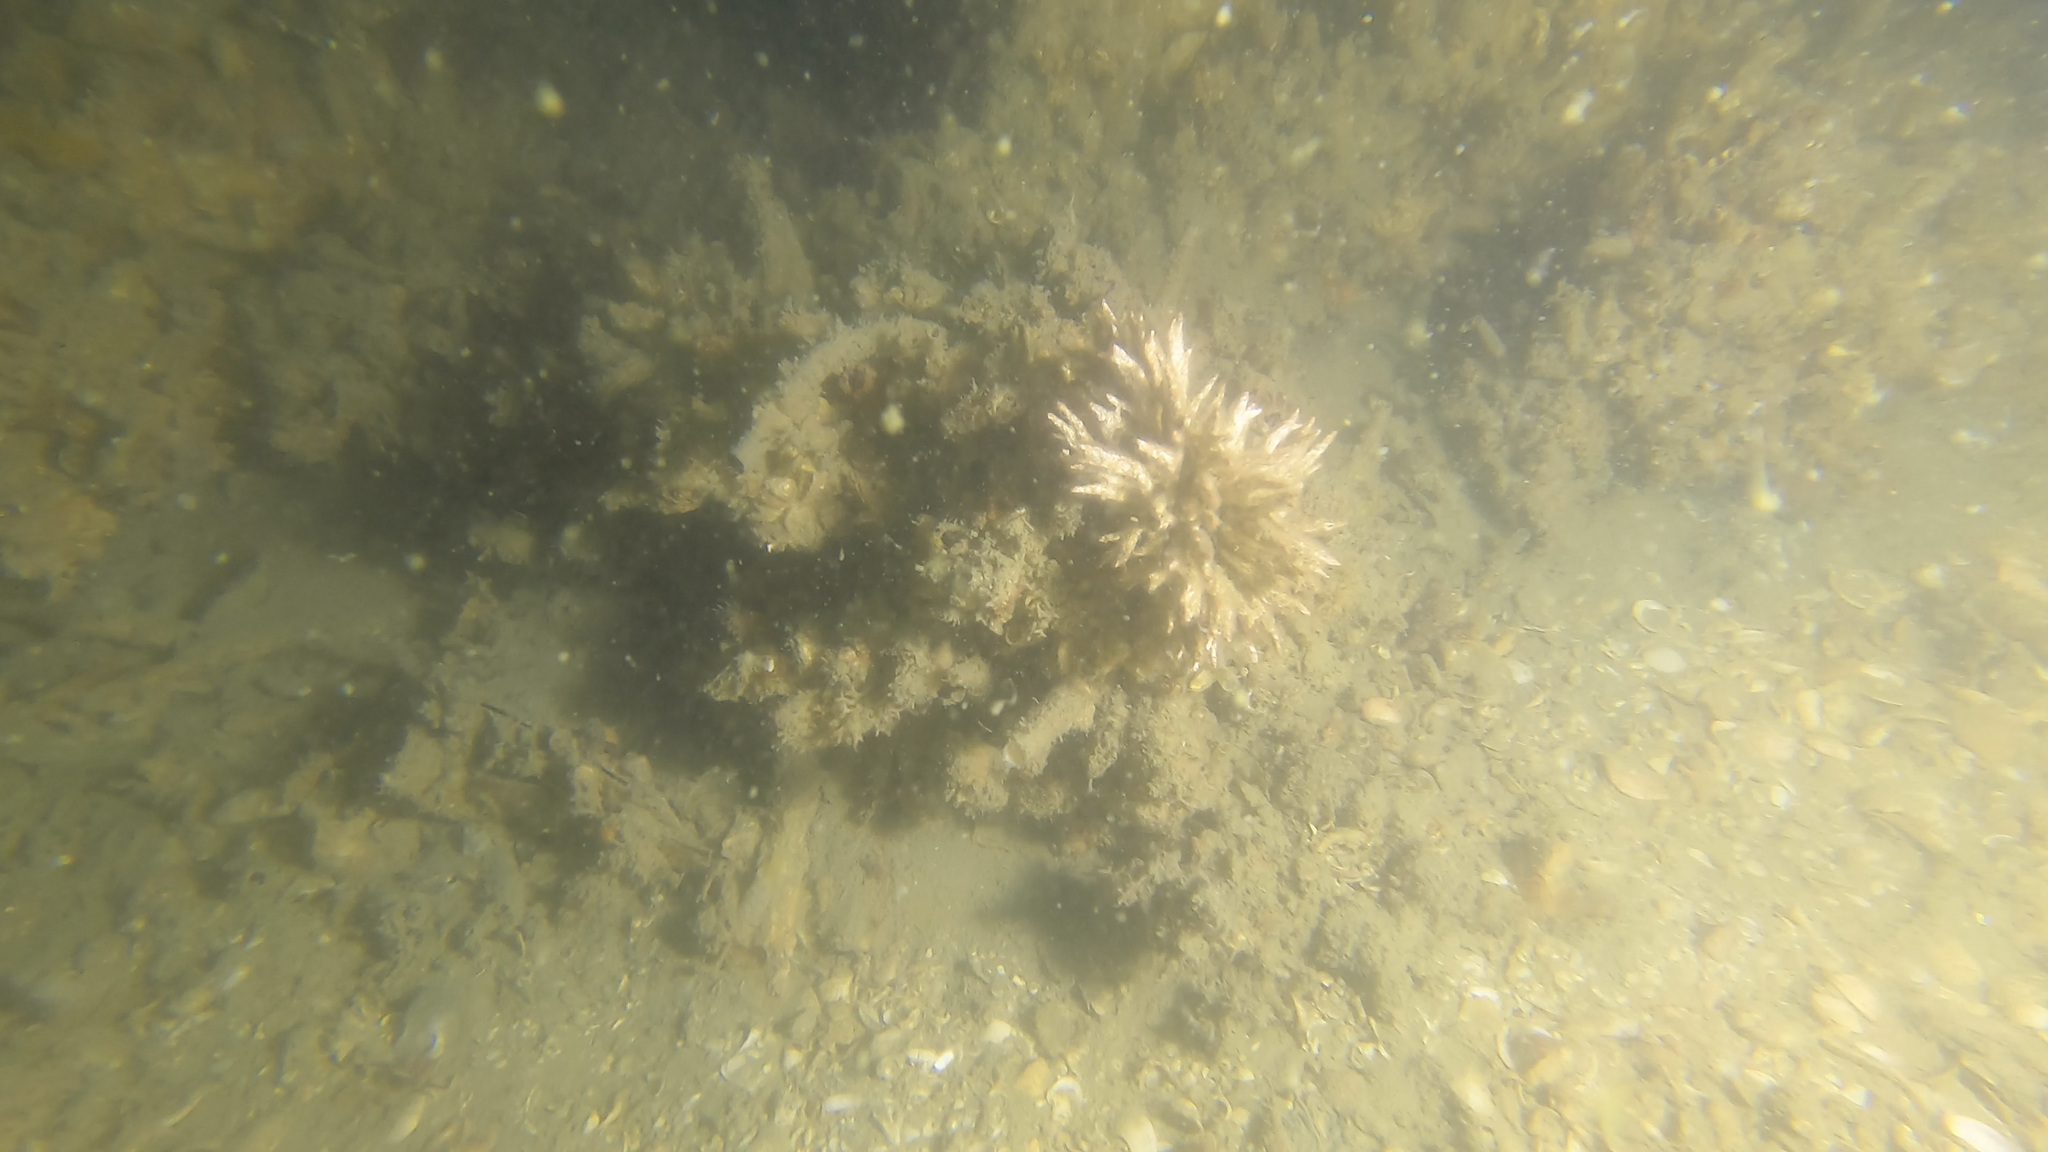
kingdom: Animalia
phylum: Annelida
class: Polychaeta
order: Sabellida
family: Serpulidae
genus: Salmacina
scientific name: Salmacina australis
